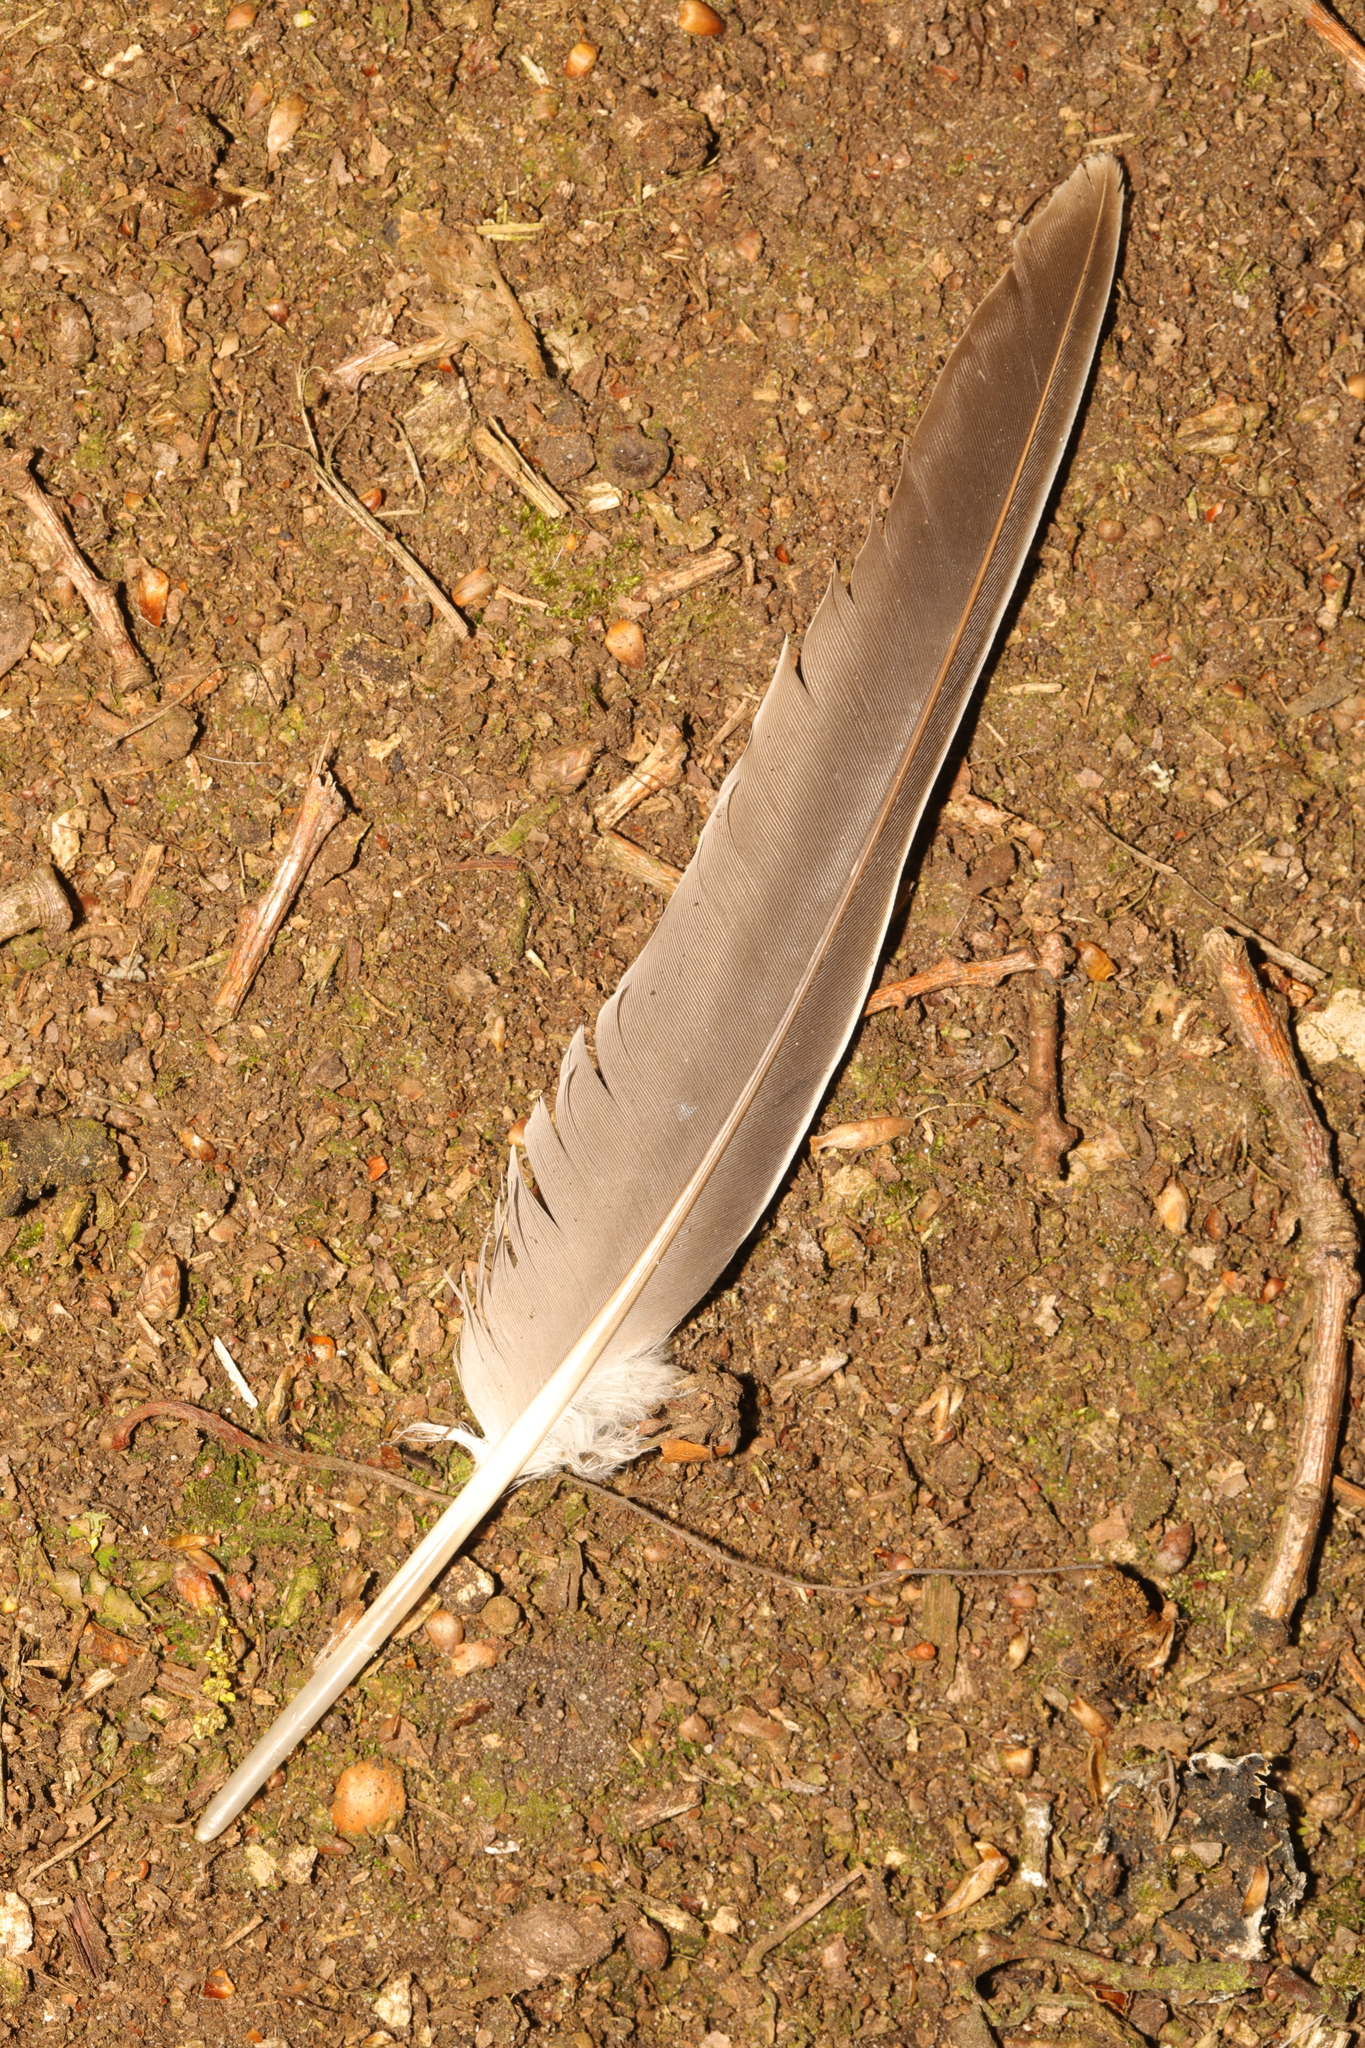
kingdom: Animalia
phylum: Chordata
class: Aves
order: Columbiformes
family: Columbidae
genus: Columba
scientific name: Columba palumbus
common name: Common wood pigeon
